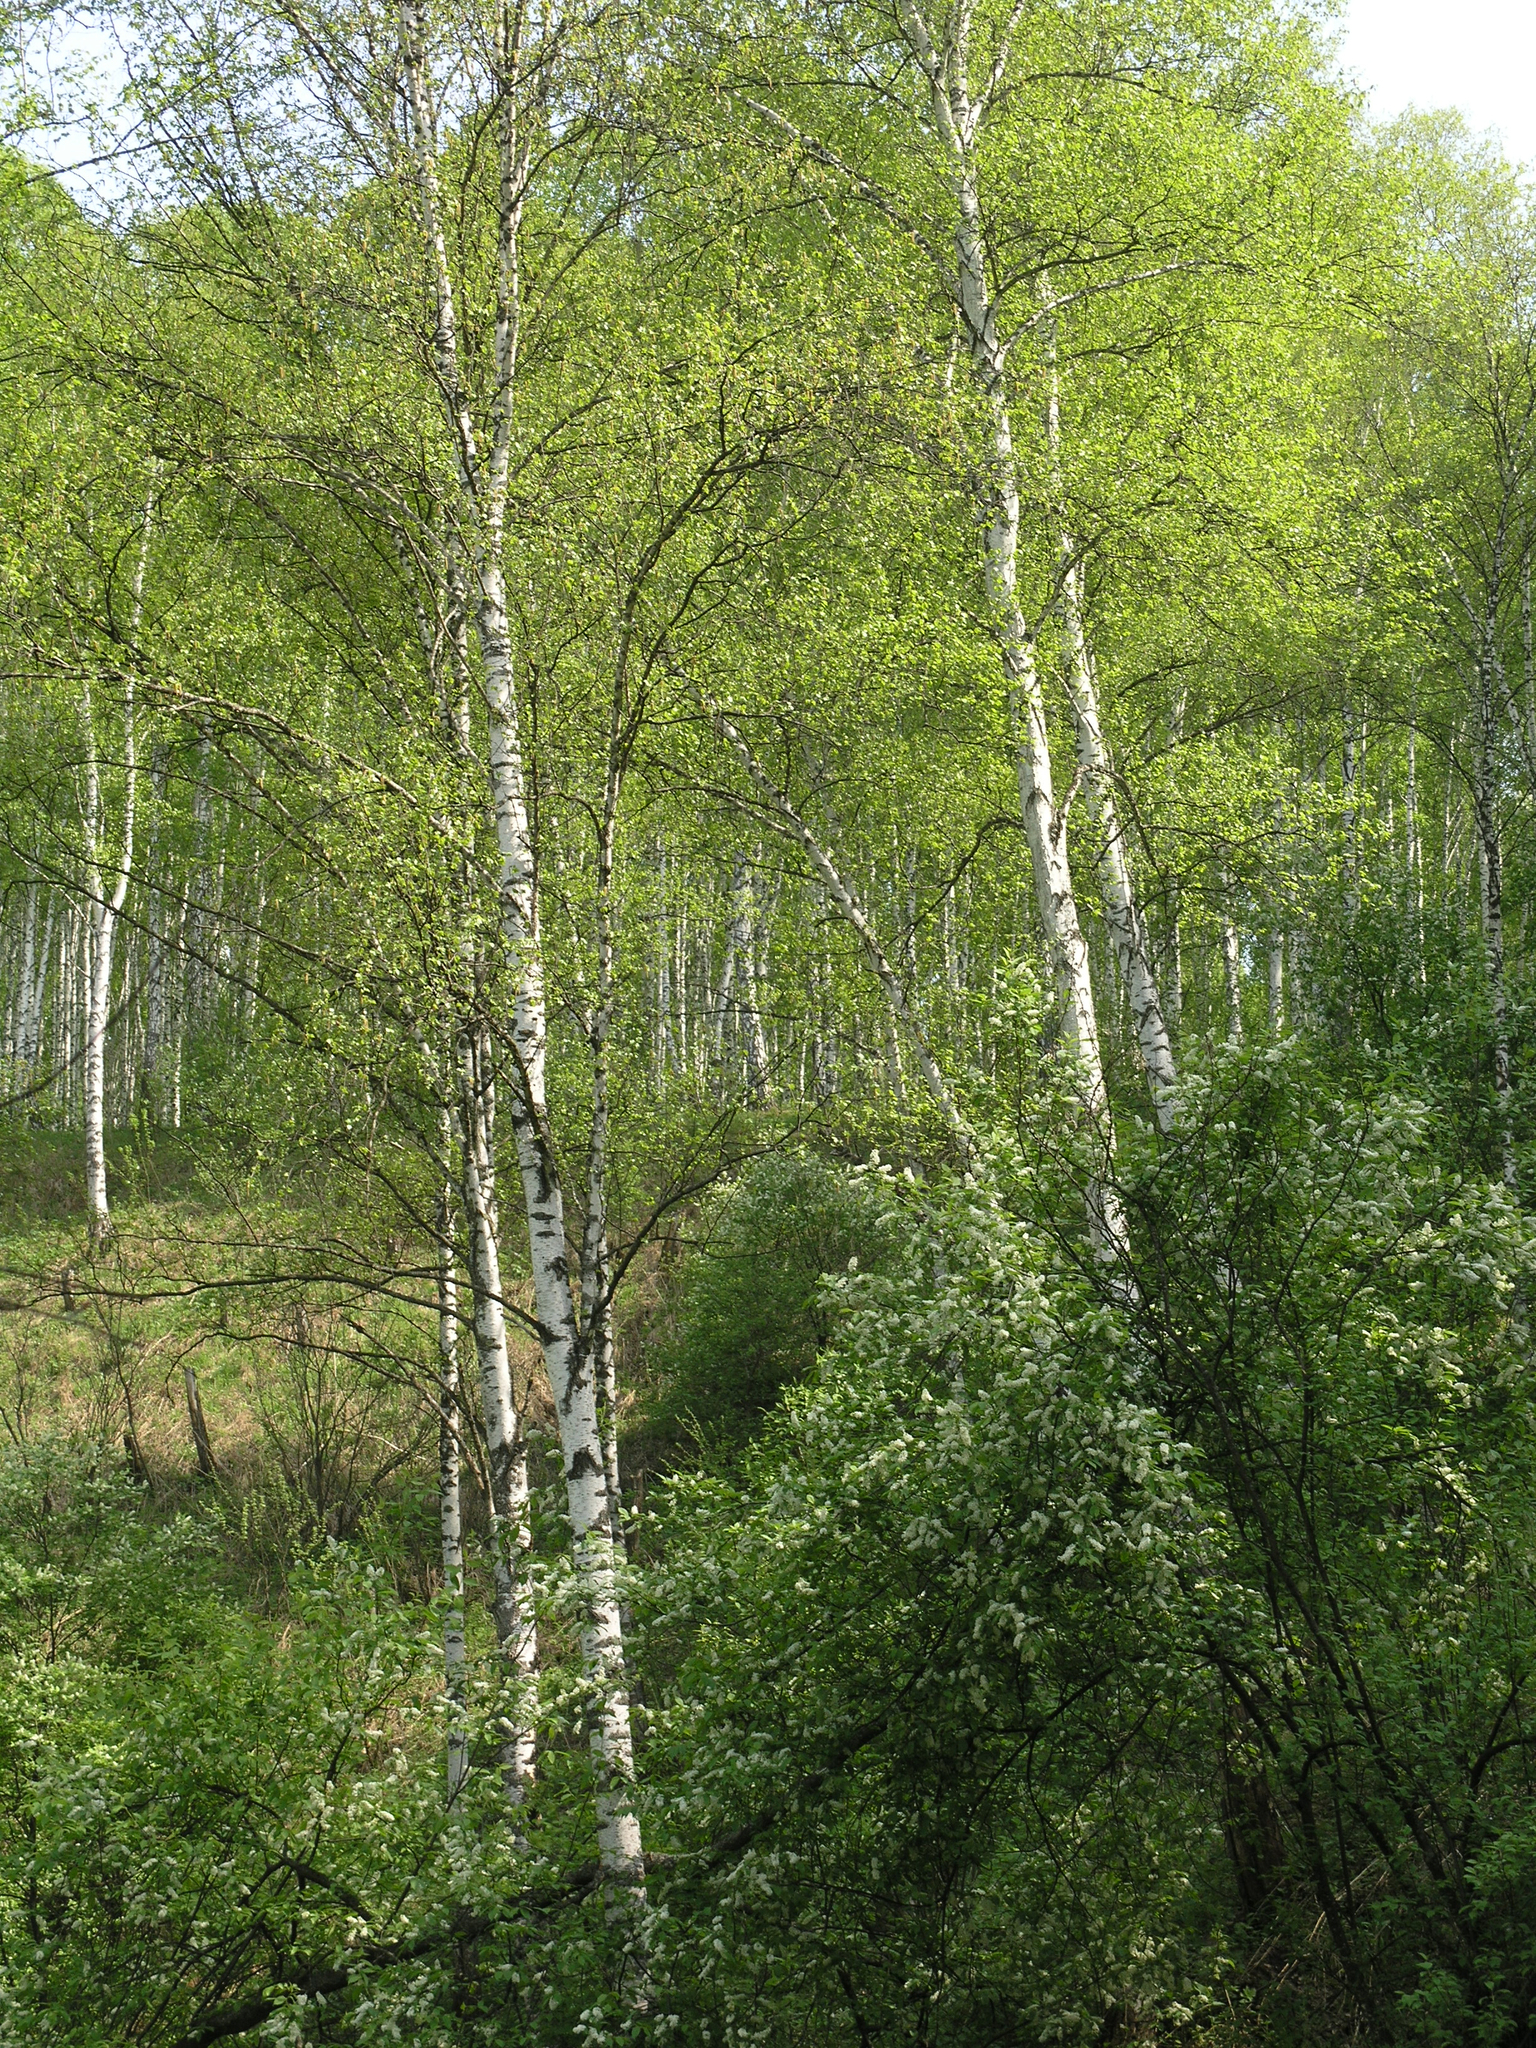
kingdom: Plantae
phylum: Tracheophyta
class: Magnoliopsida
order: Rosales
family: Rosaceae
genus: Prunus
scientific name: Prunus padus
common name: Bird cherry
